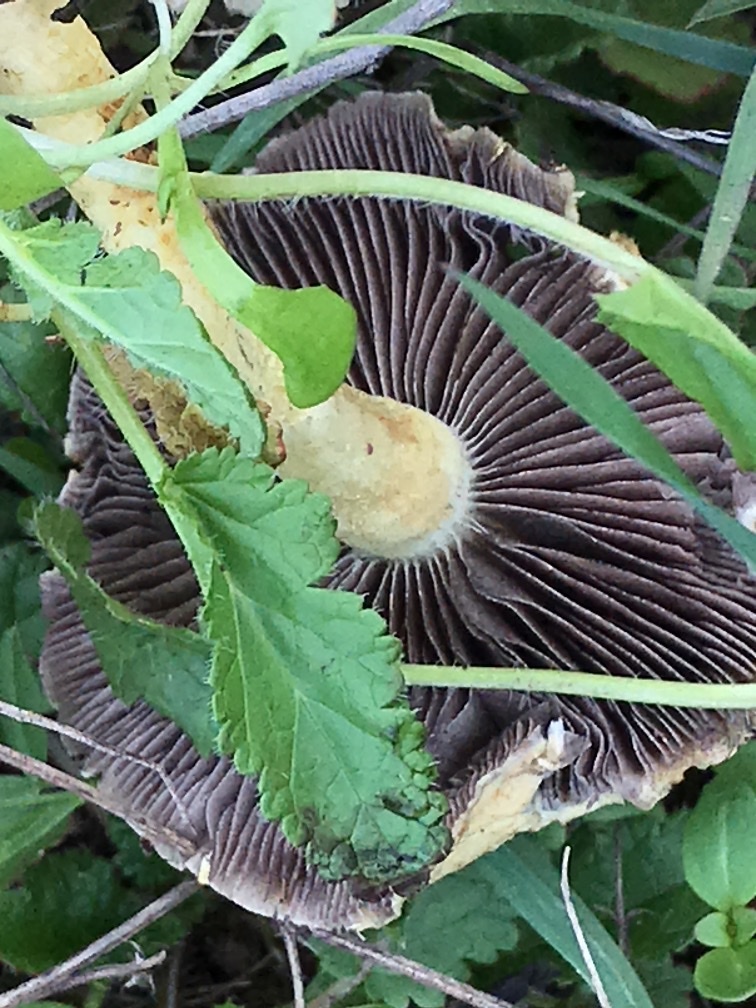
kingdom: Fungi
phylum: Basidiomycota
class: Agaricomycetes
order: Agaricales
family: Strophariaceae
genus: Leratiomyces
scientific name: Leratiomyces percevalii
